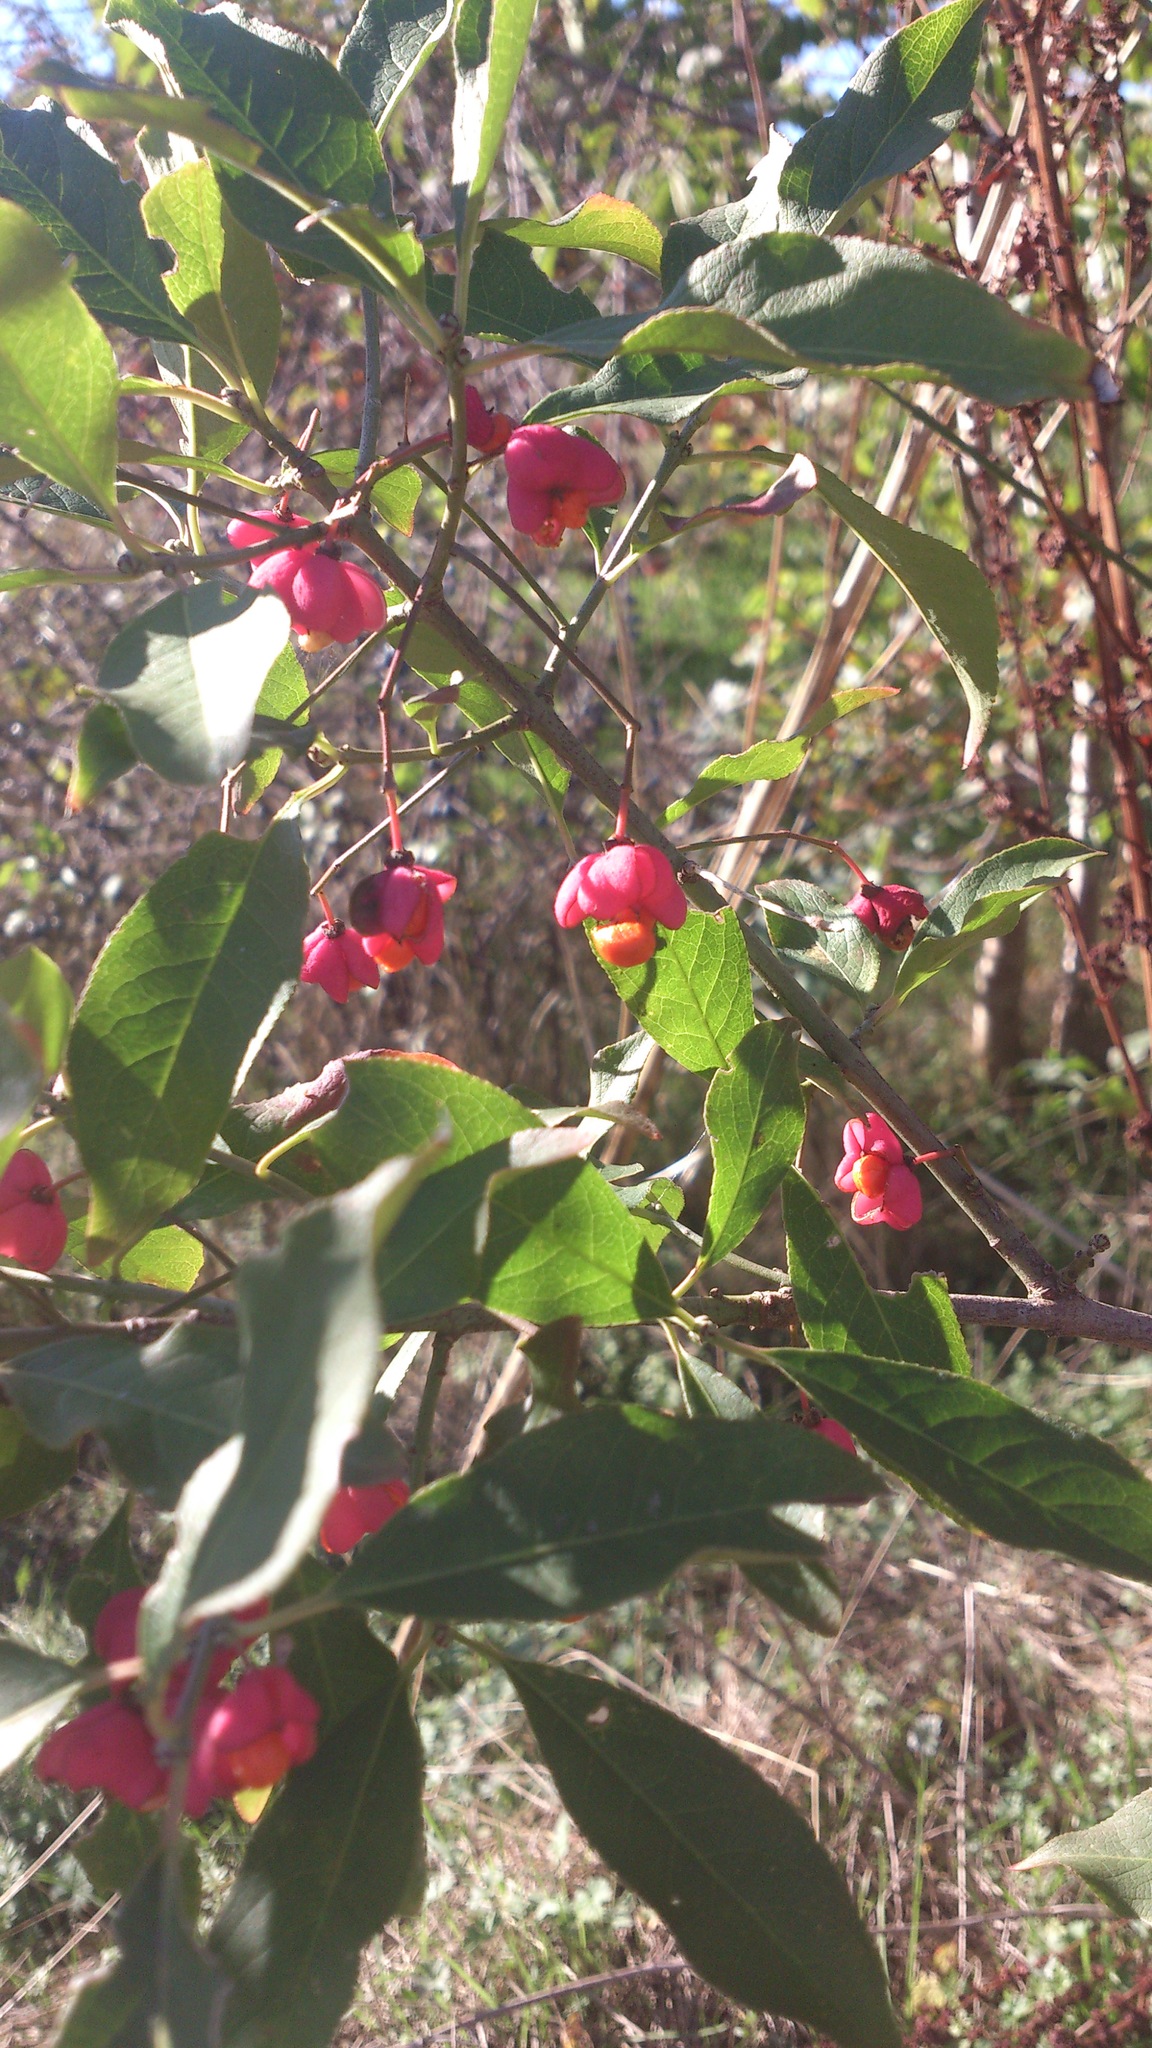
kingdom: Plantae
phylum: Tracheophyta
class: Magnoliopsida
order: Celastrales
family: Celastraceae
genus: Euonymus
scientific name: Euonymus europaeus
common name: Spindle
